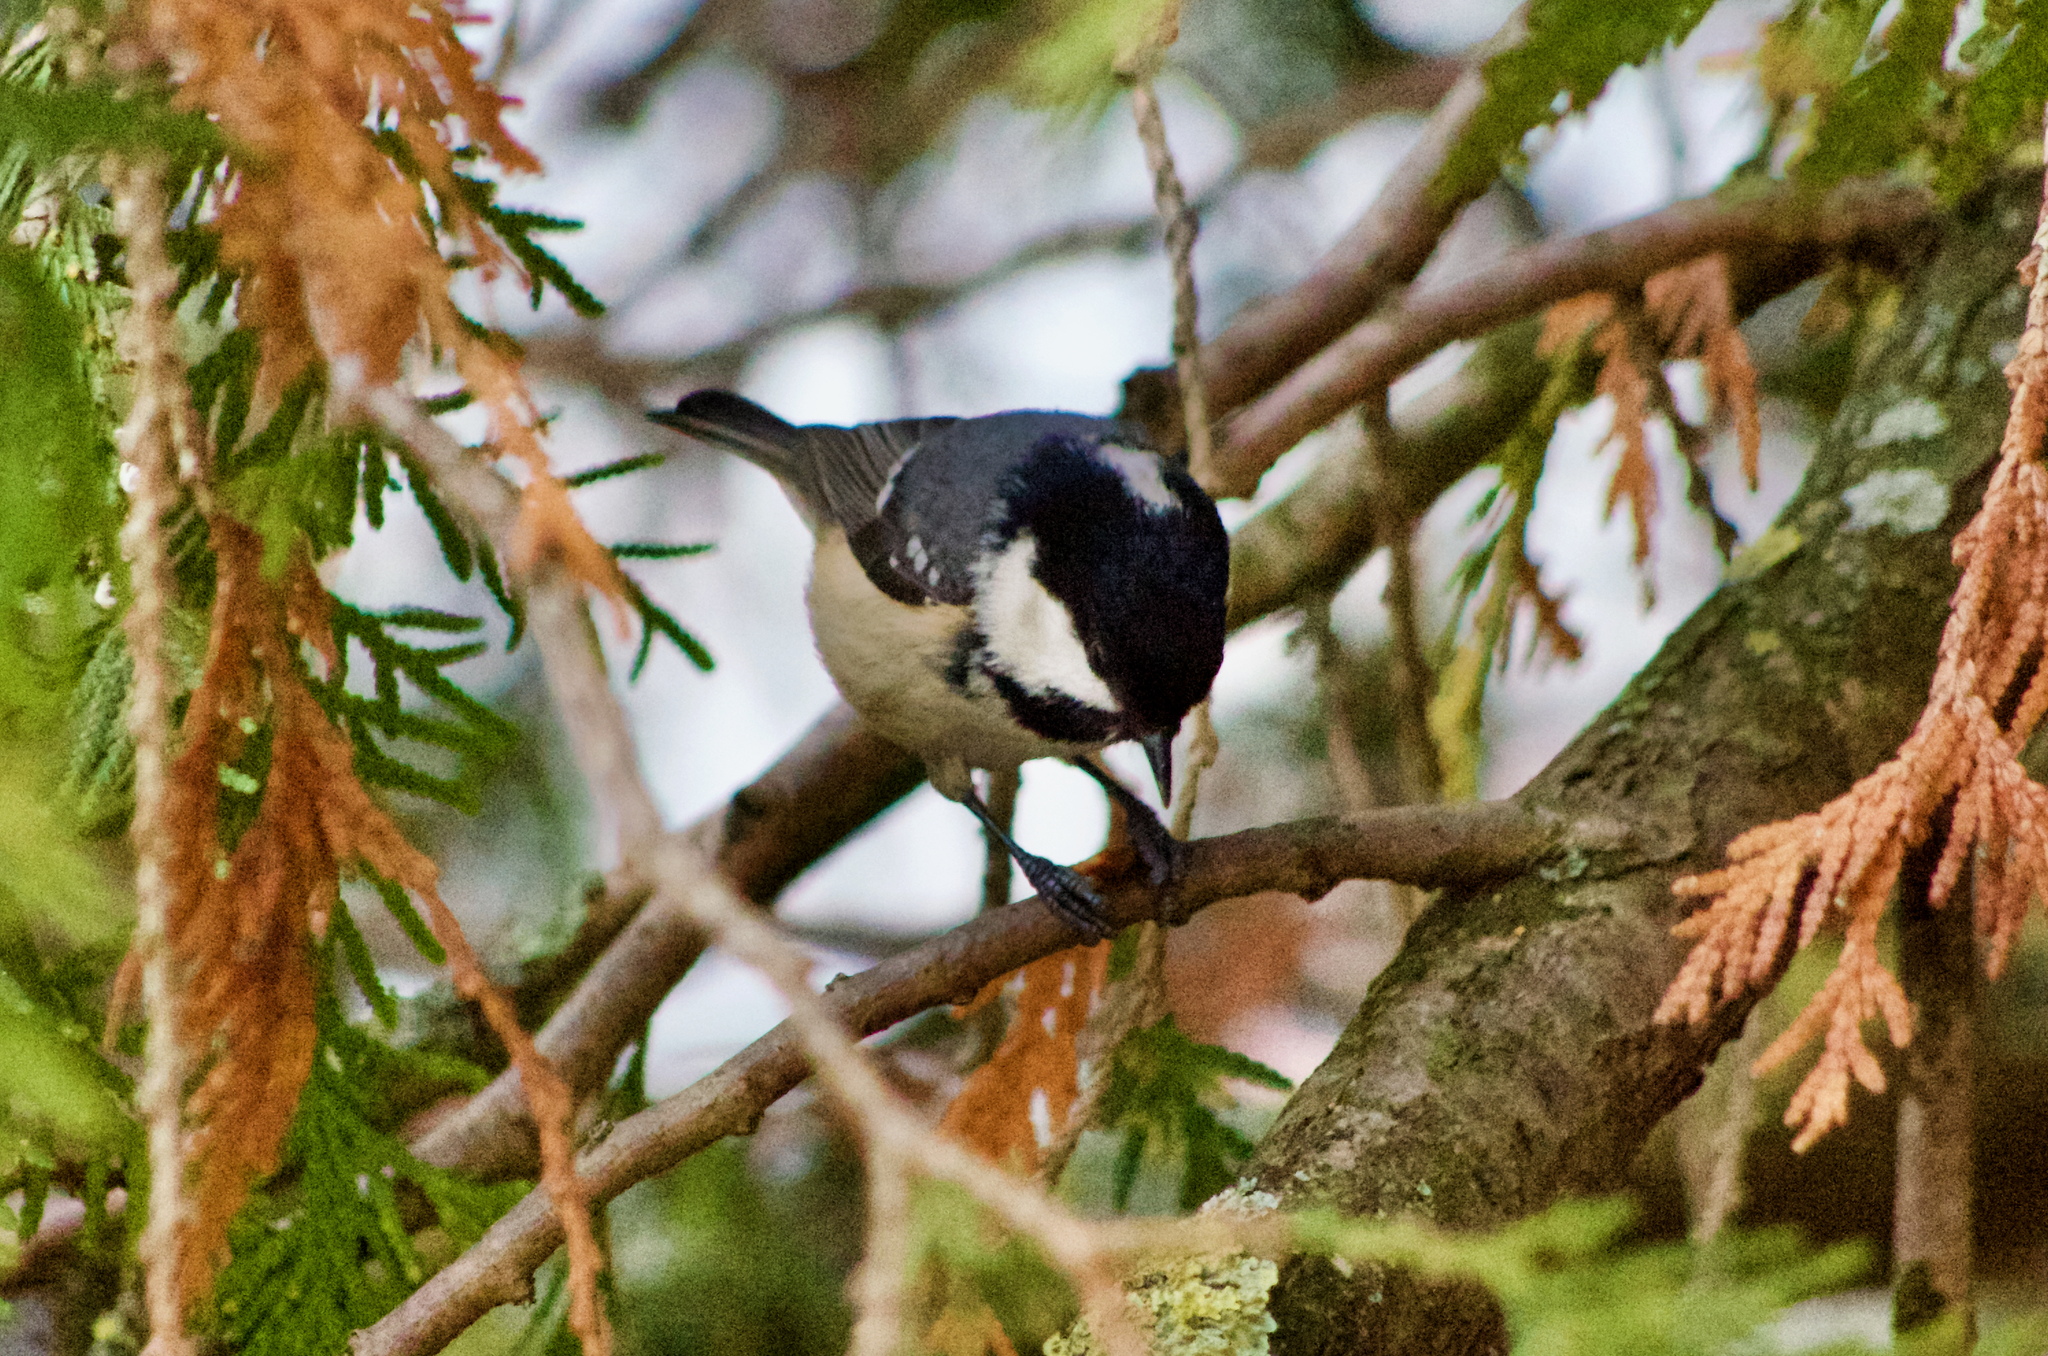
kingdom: Animalia
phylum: Chordata
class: Aves
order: Passeriformes
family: Paridae
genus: Periparus
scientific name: Periparus ater
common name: Coal tit
